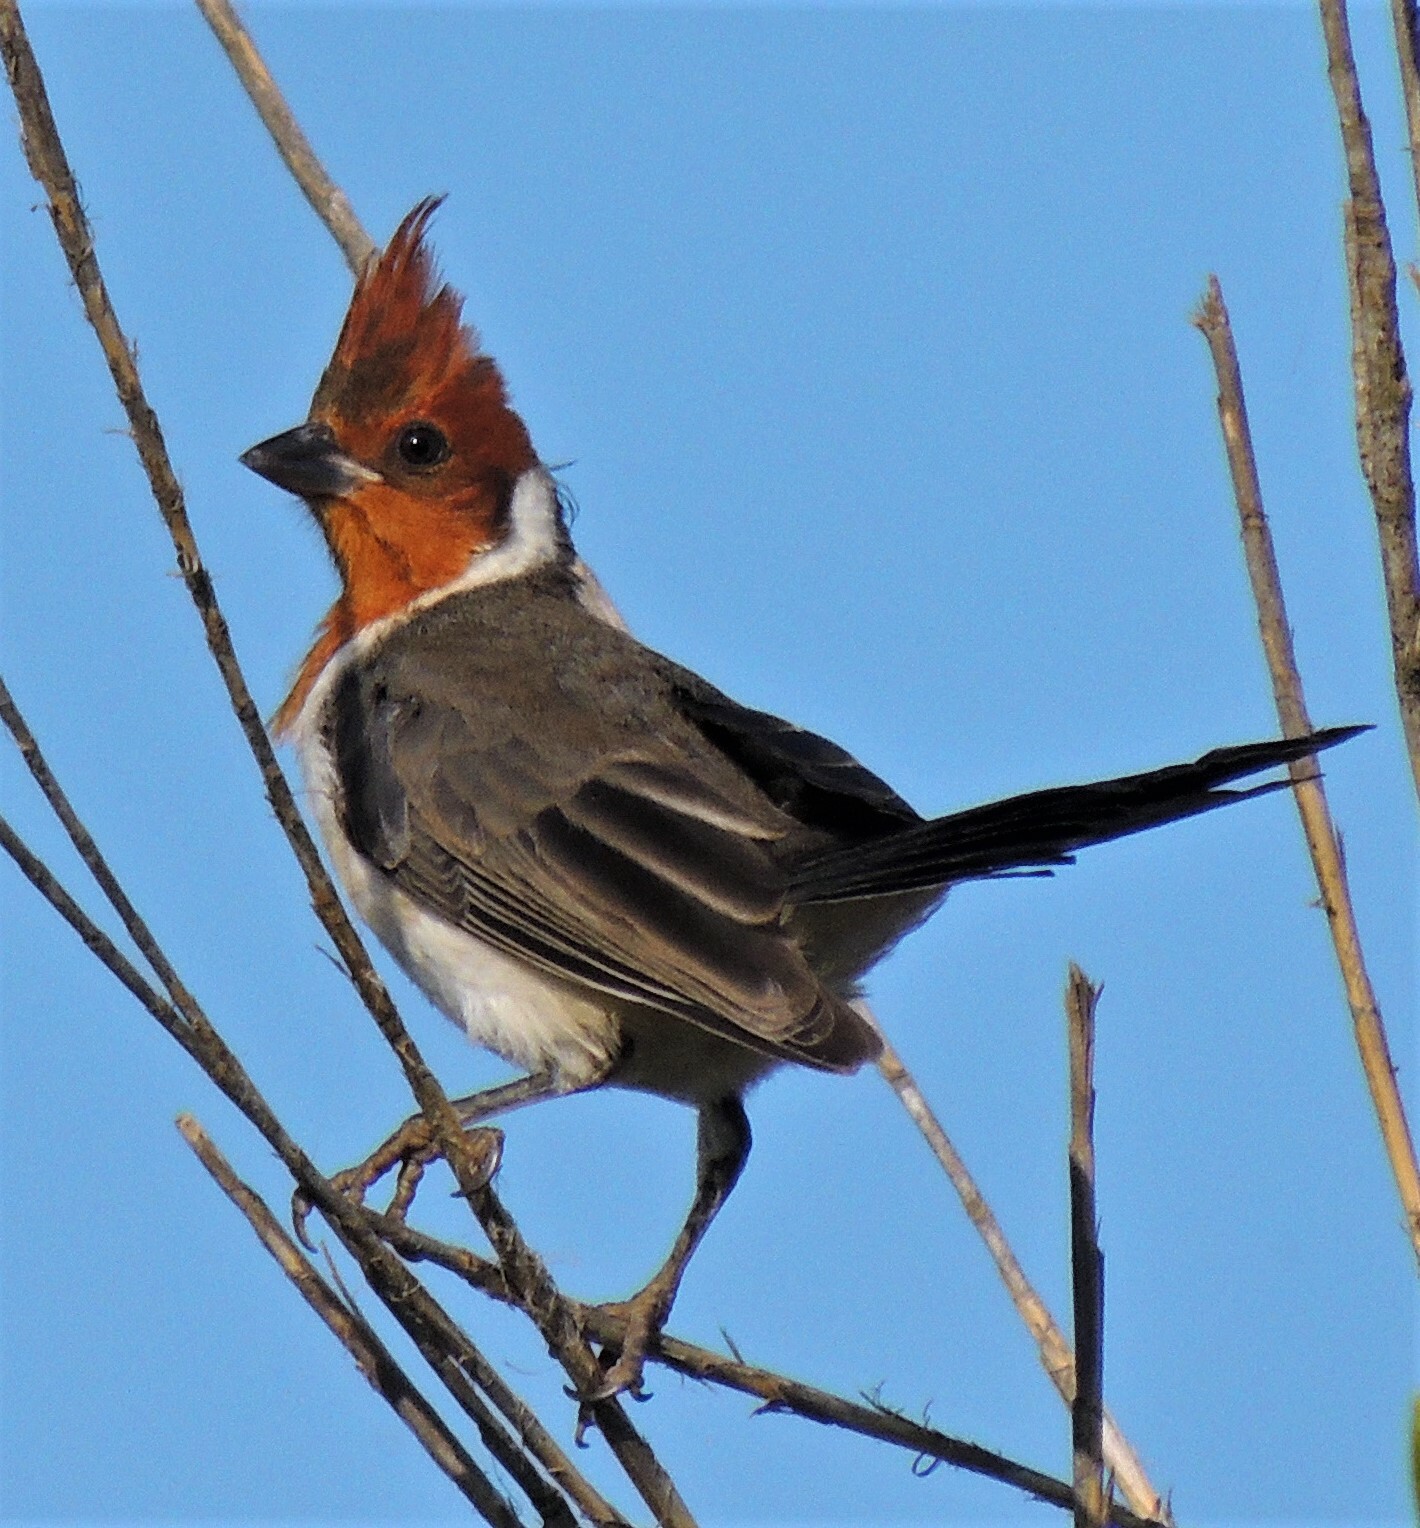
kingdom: Animalia
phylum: Chordata
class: Aves
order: Passeriformes
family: Thraupidae
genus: Paroaria
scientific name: Paroaria coronata
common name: Red-crested cardinal
